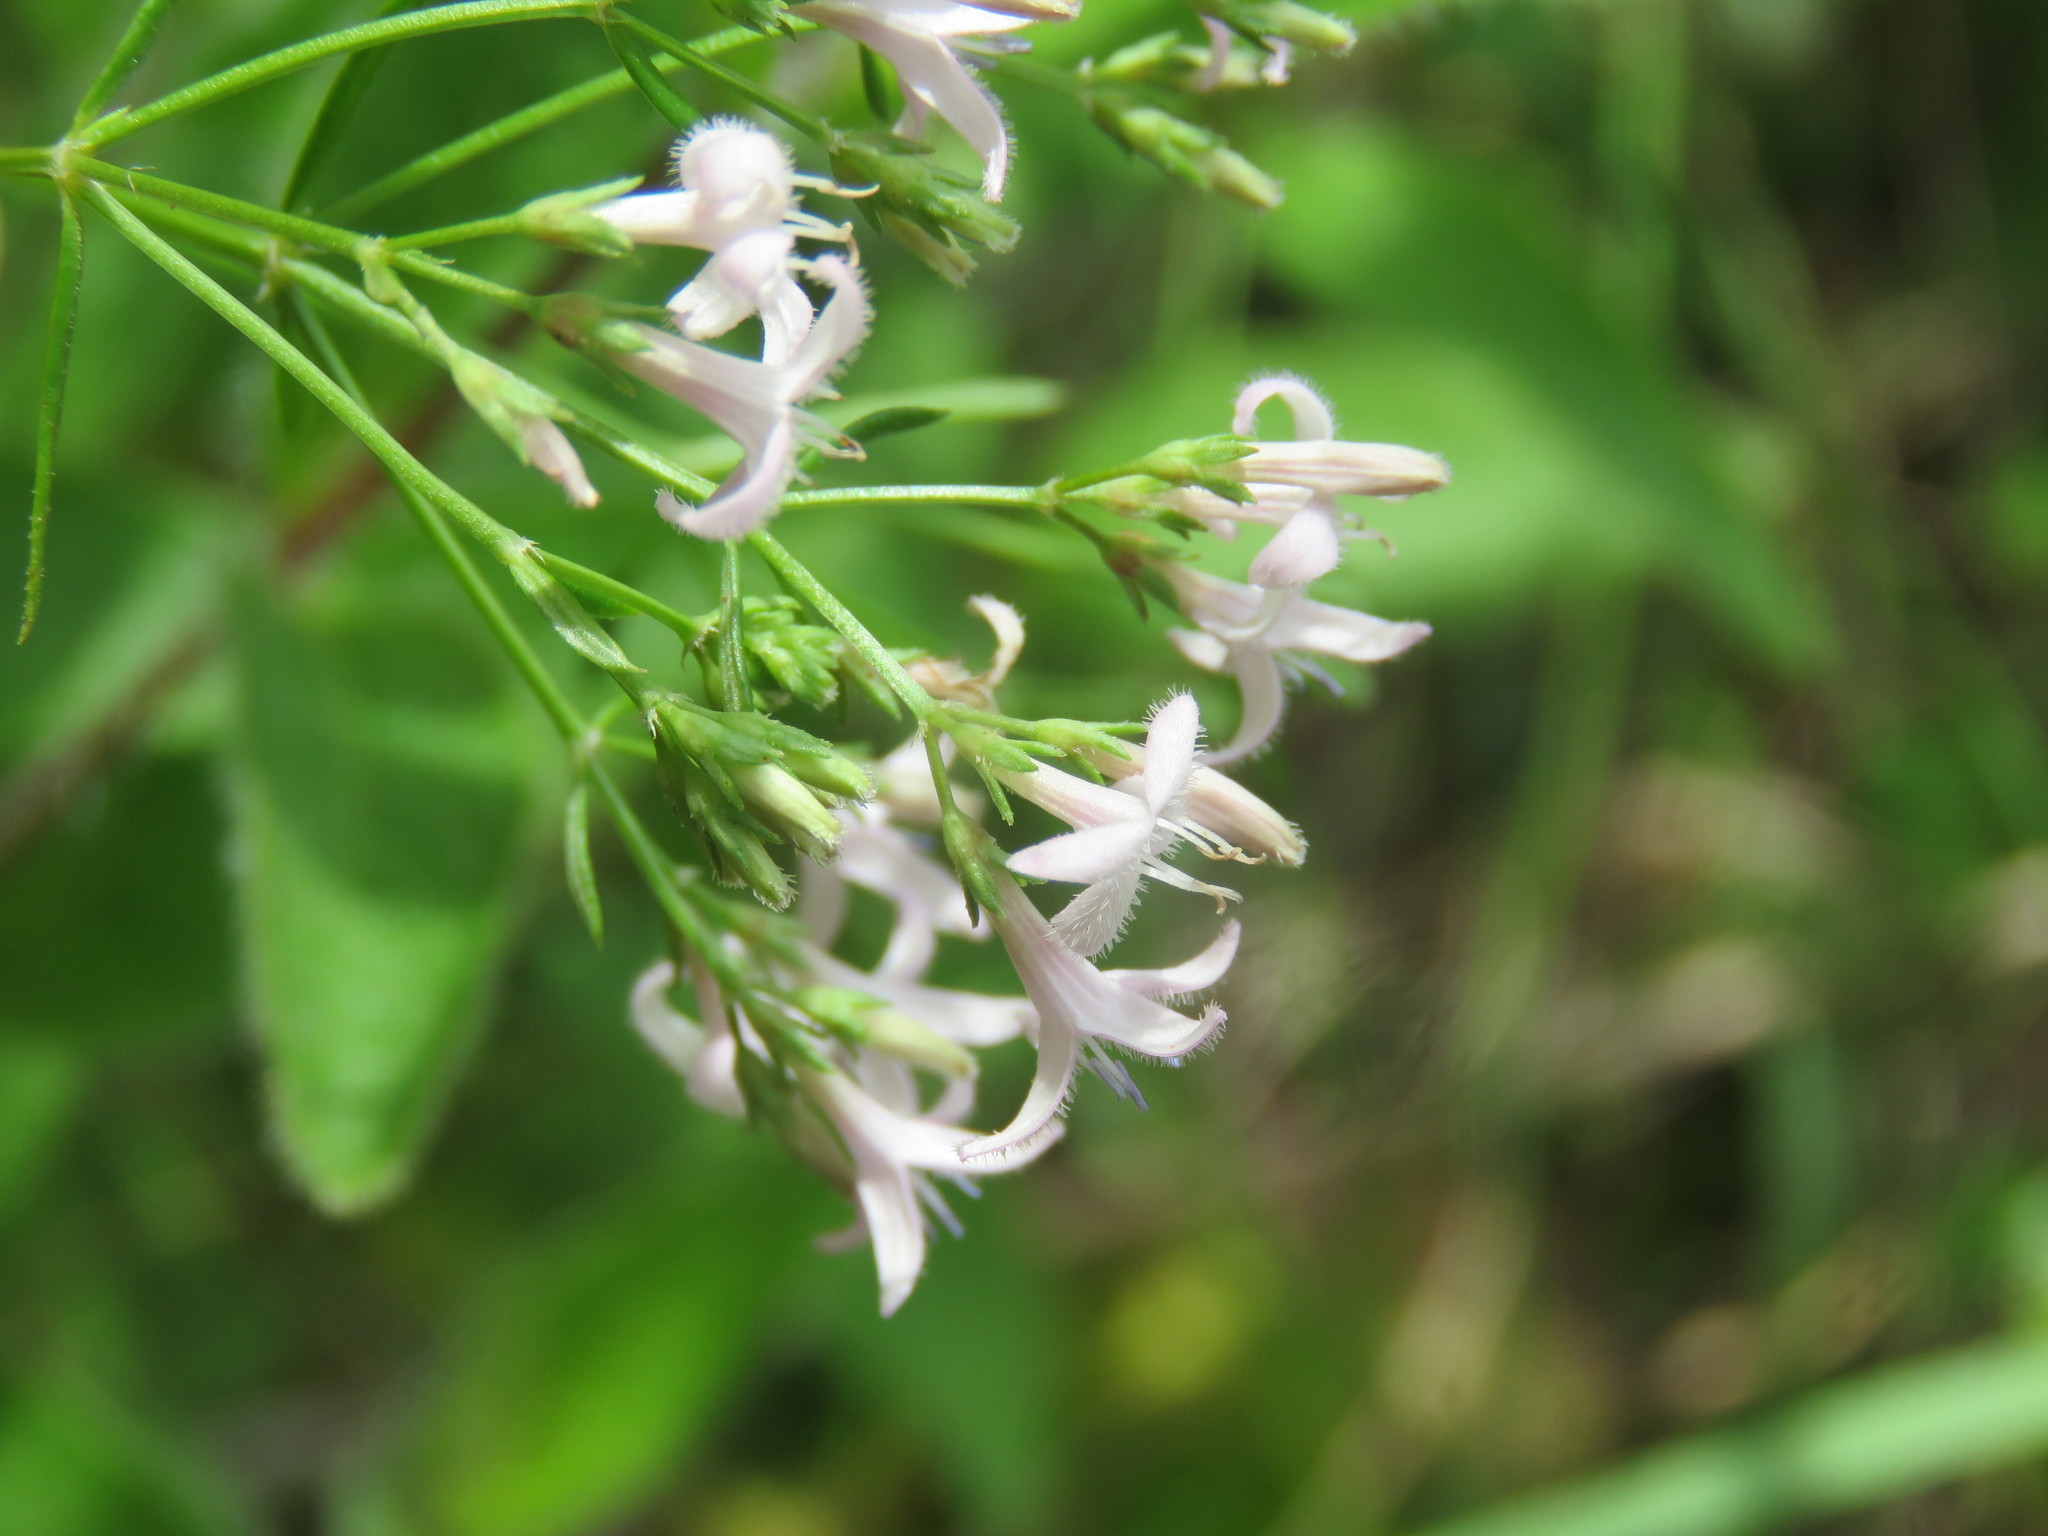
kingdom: Plantae
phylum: Tracheophyta
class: Magnoliopsida
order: Gentianales
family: Rubiaceae
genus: Stenaria
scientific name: Stenaria nigricans
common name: Diamondflowers
